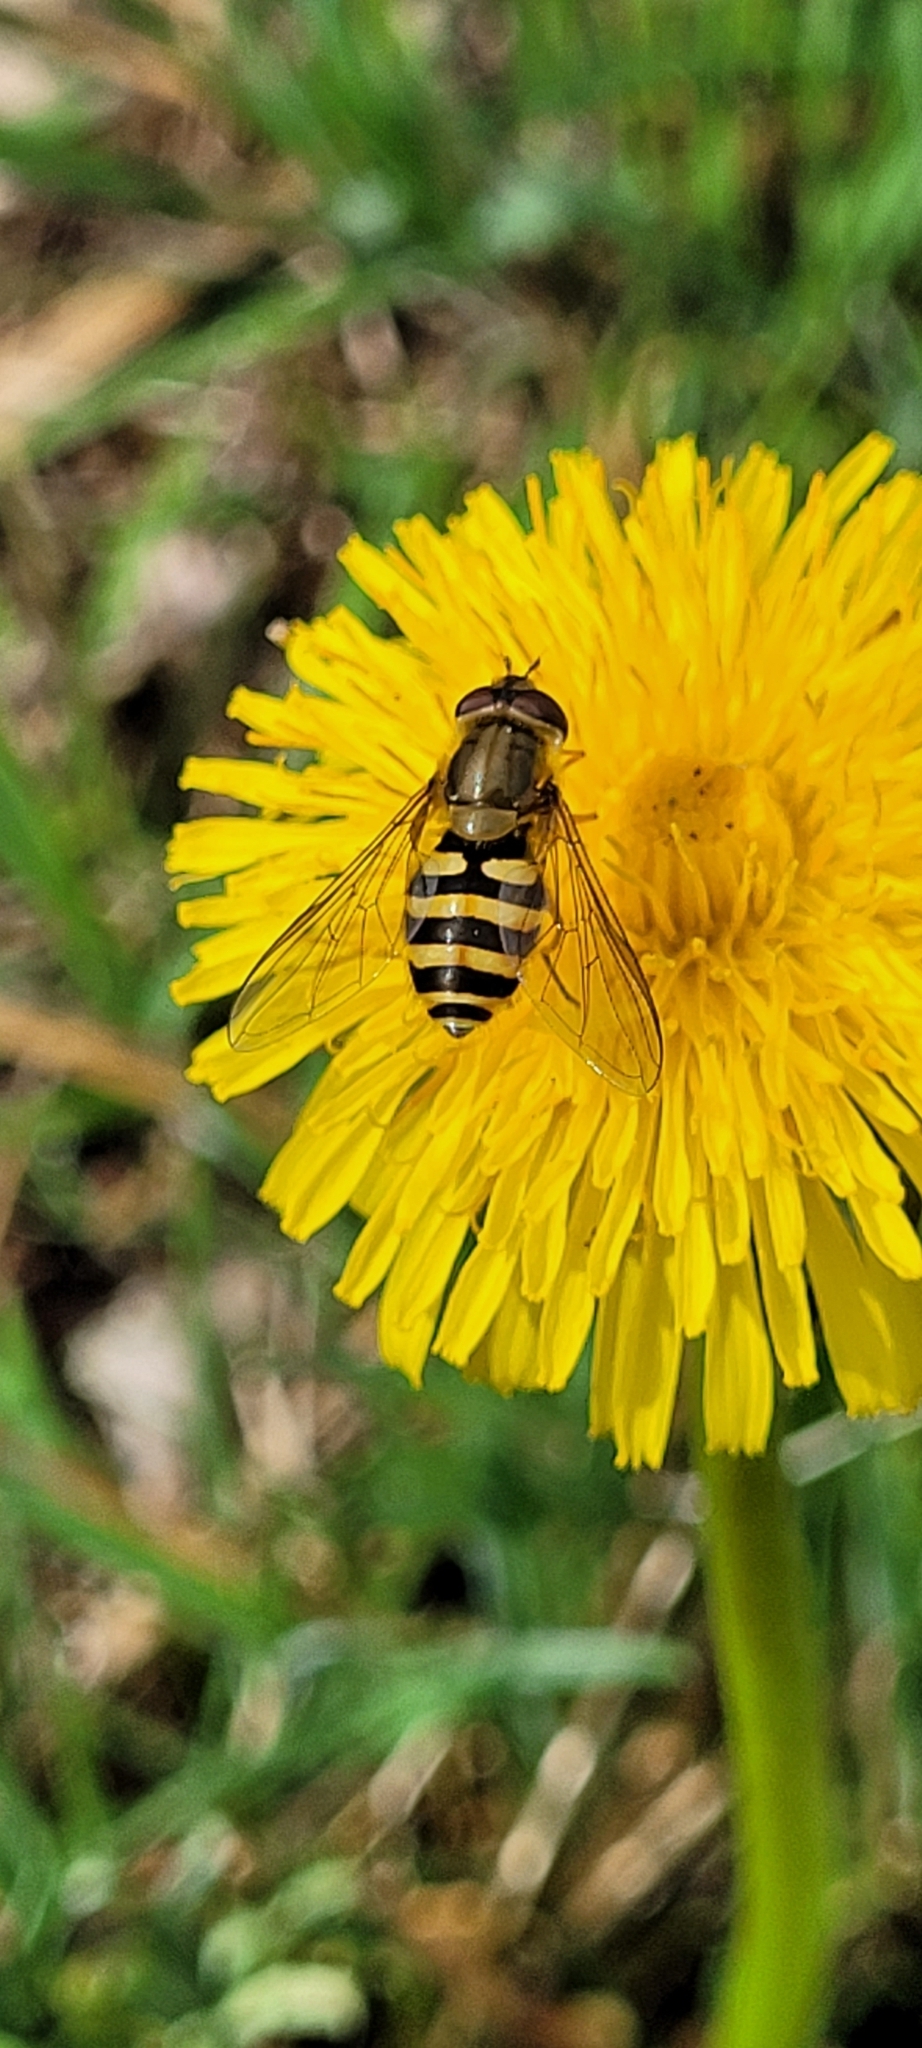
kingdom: Animalia
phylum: Arthropoda
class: Insecta
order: Diptera
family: Syrphidae
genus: Syrphus
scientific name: Syrphus ribesii
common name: Common flower fly
